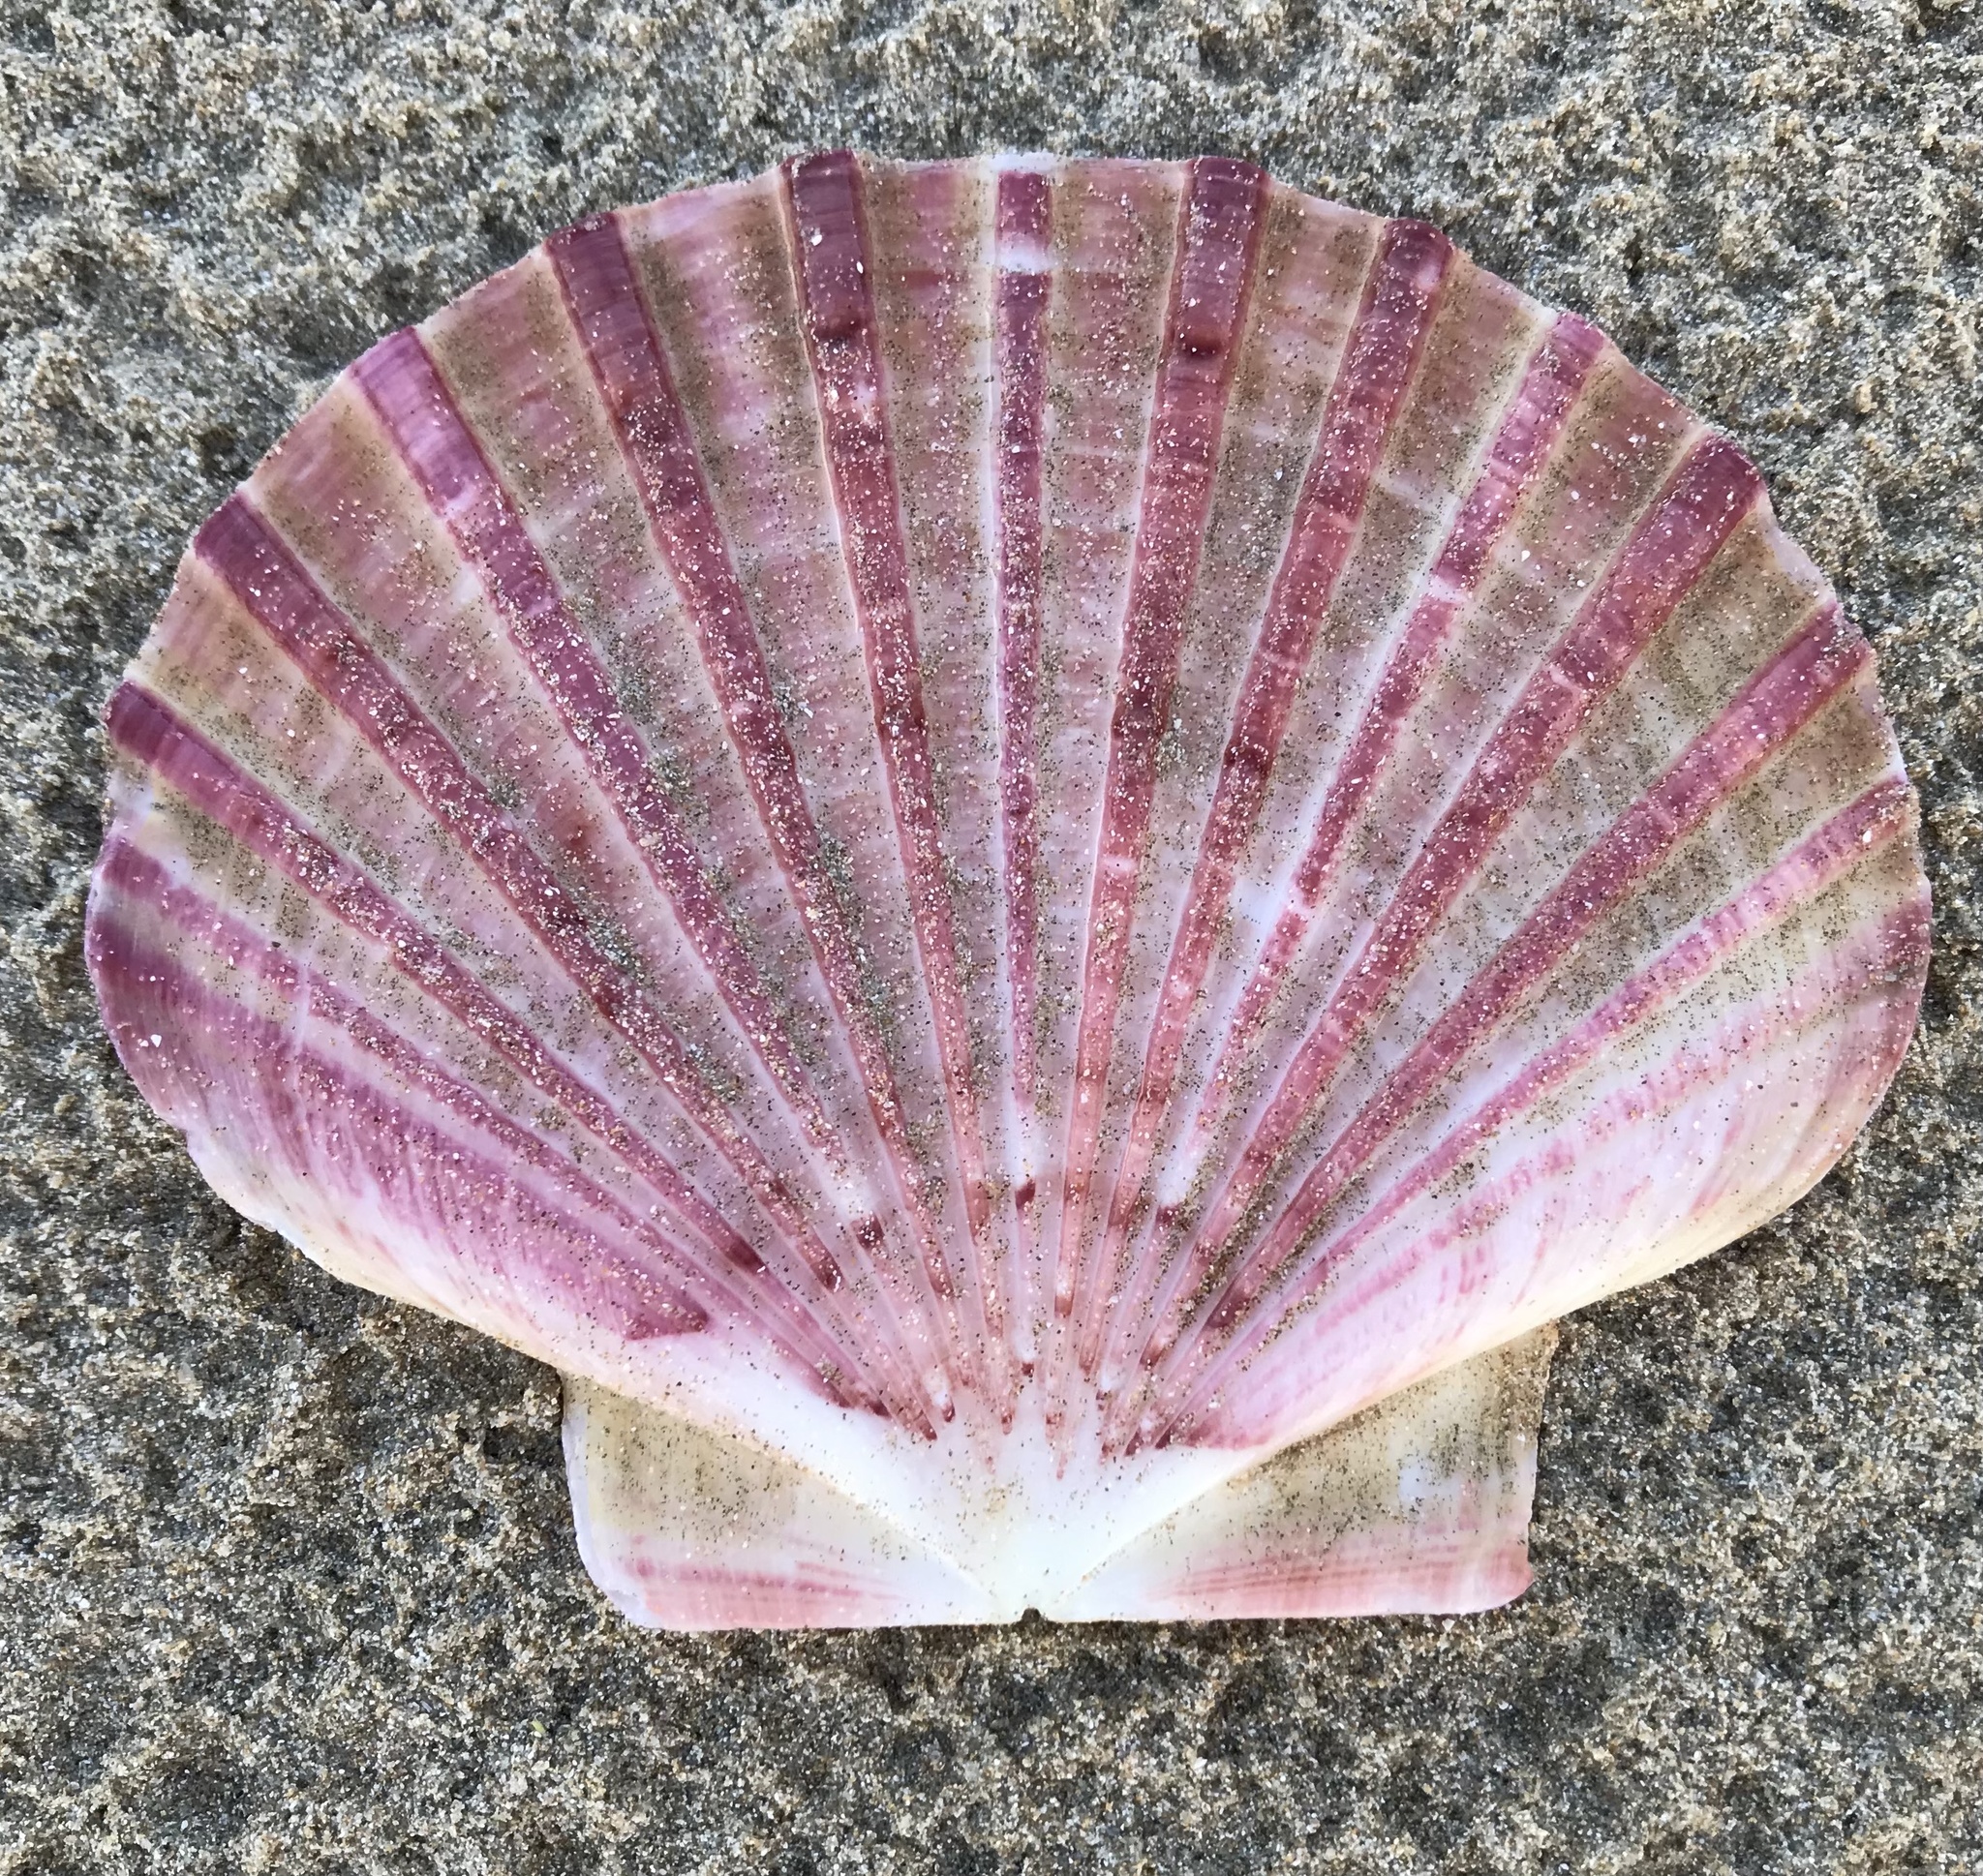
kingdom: Animalia
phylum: Mollusca
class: Bivalvia
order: Pectinida
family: Pectinidae
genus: Pecten
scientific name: Pecten novaezelandiae
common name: New zealand scallop
